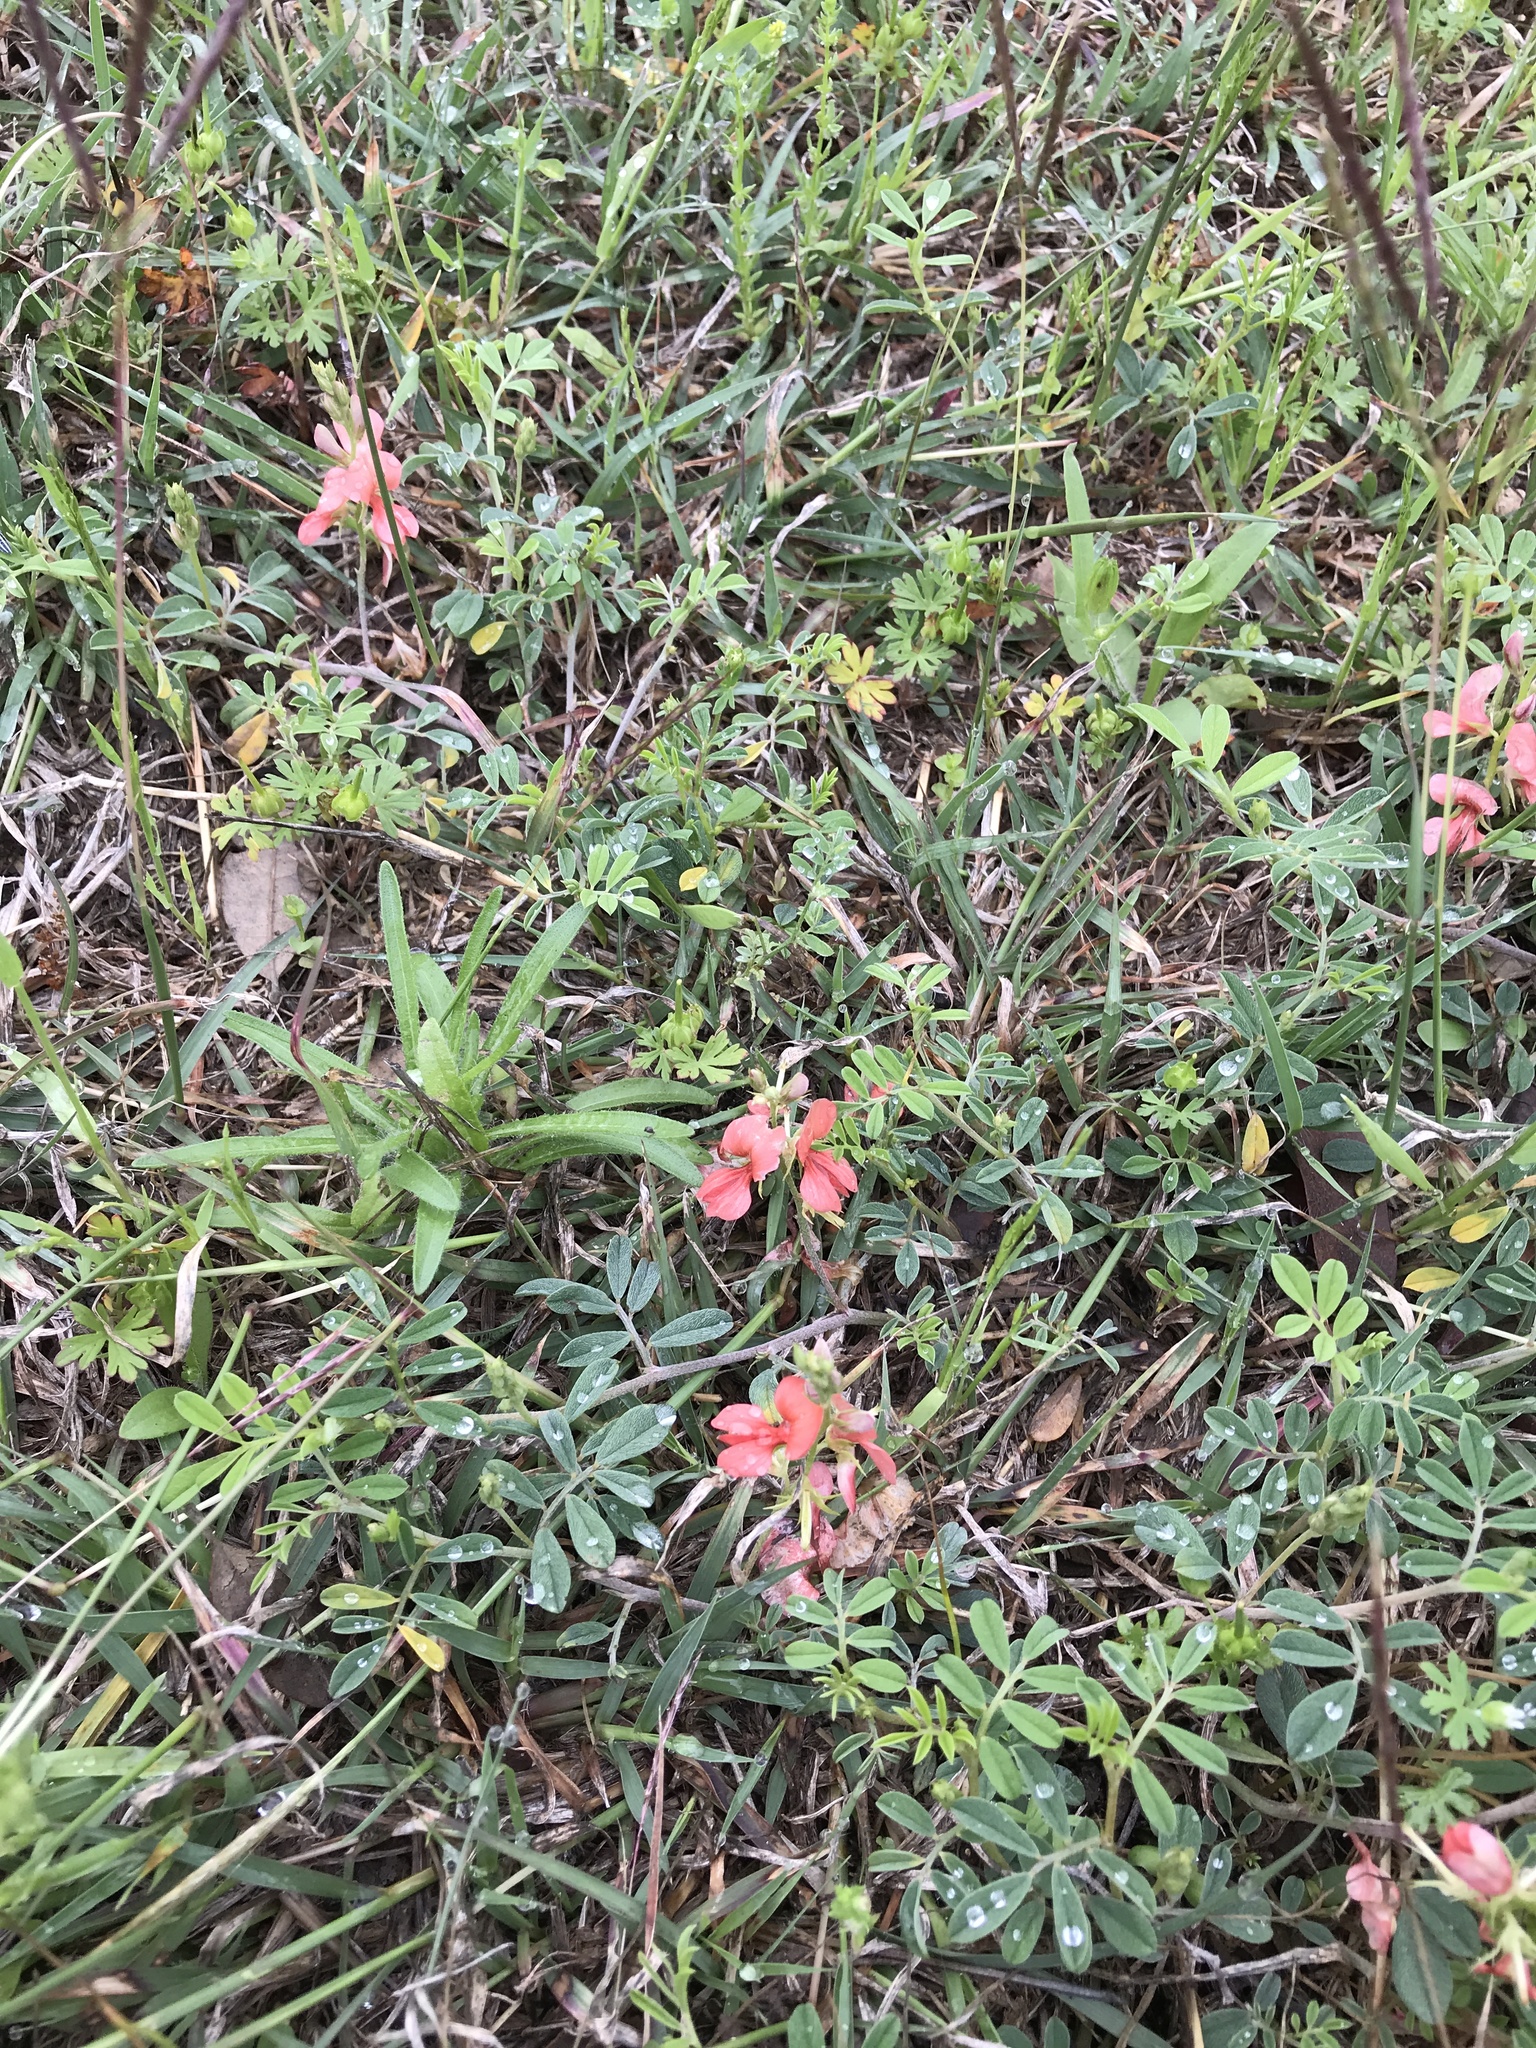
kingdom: Plantae
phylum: Tracheophyta
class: Magnoliopsida
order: Fabales
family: Fabaceae
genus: Indigofera
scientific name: Indigofera miniata
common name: Coast indigo
